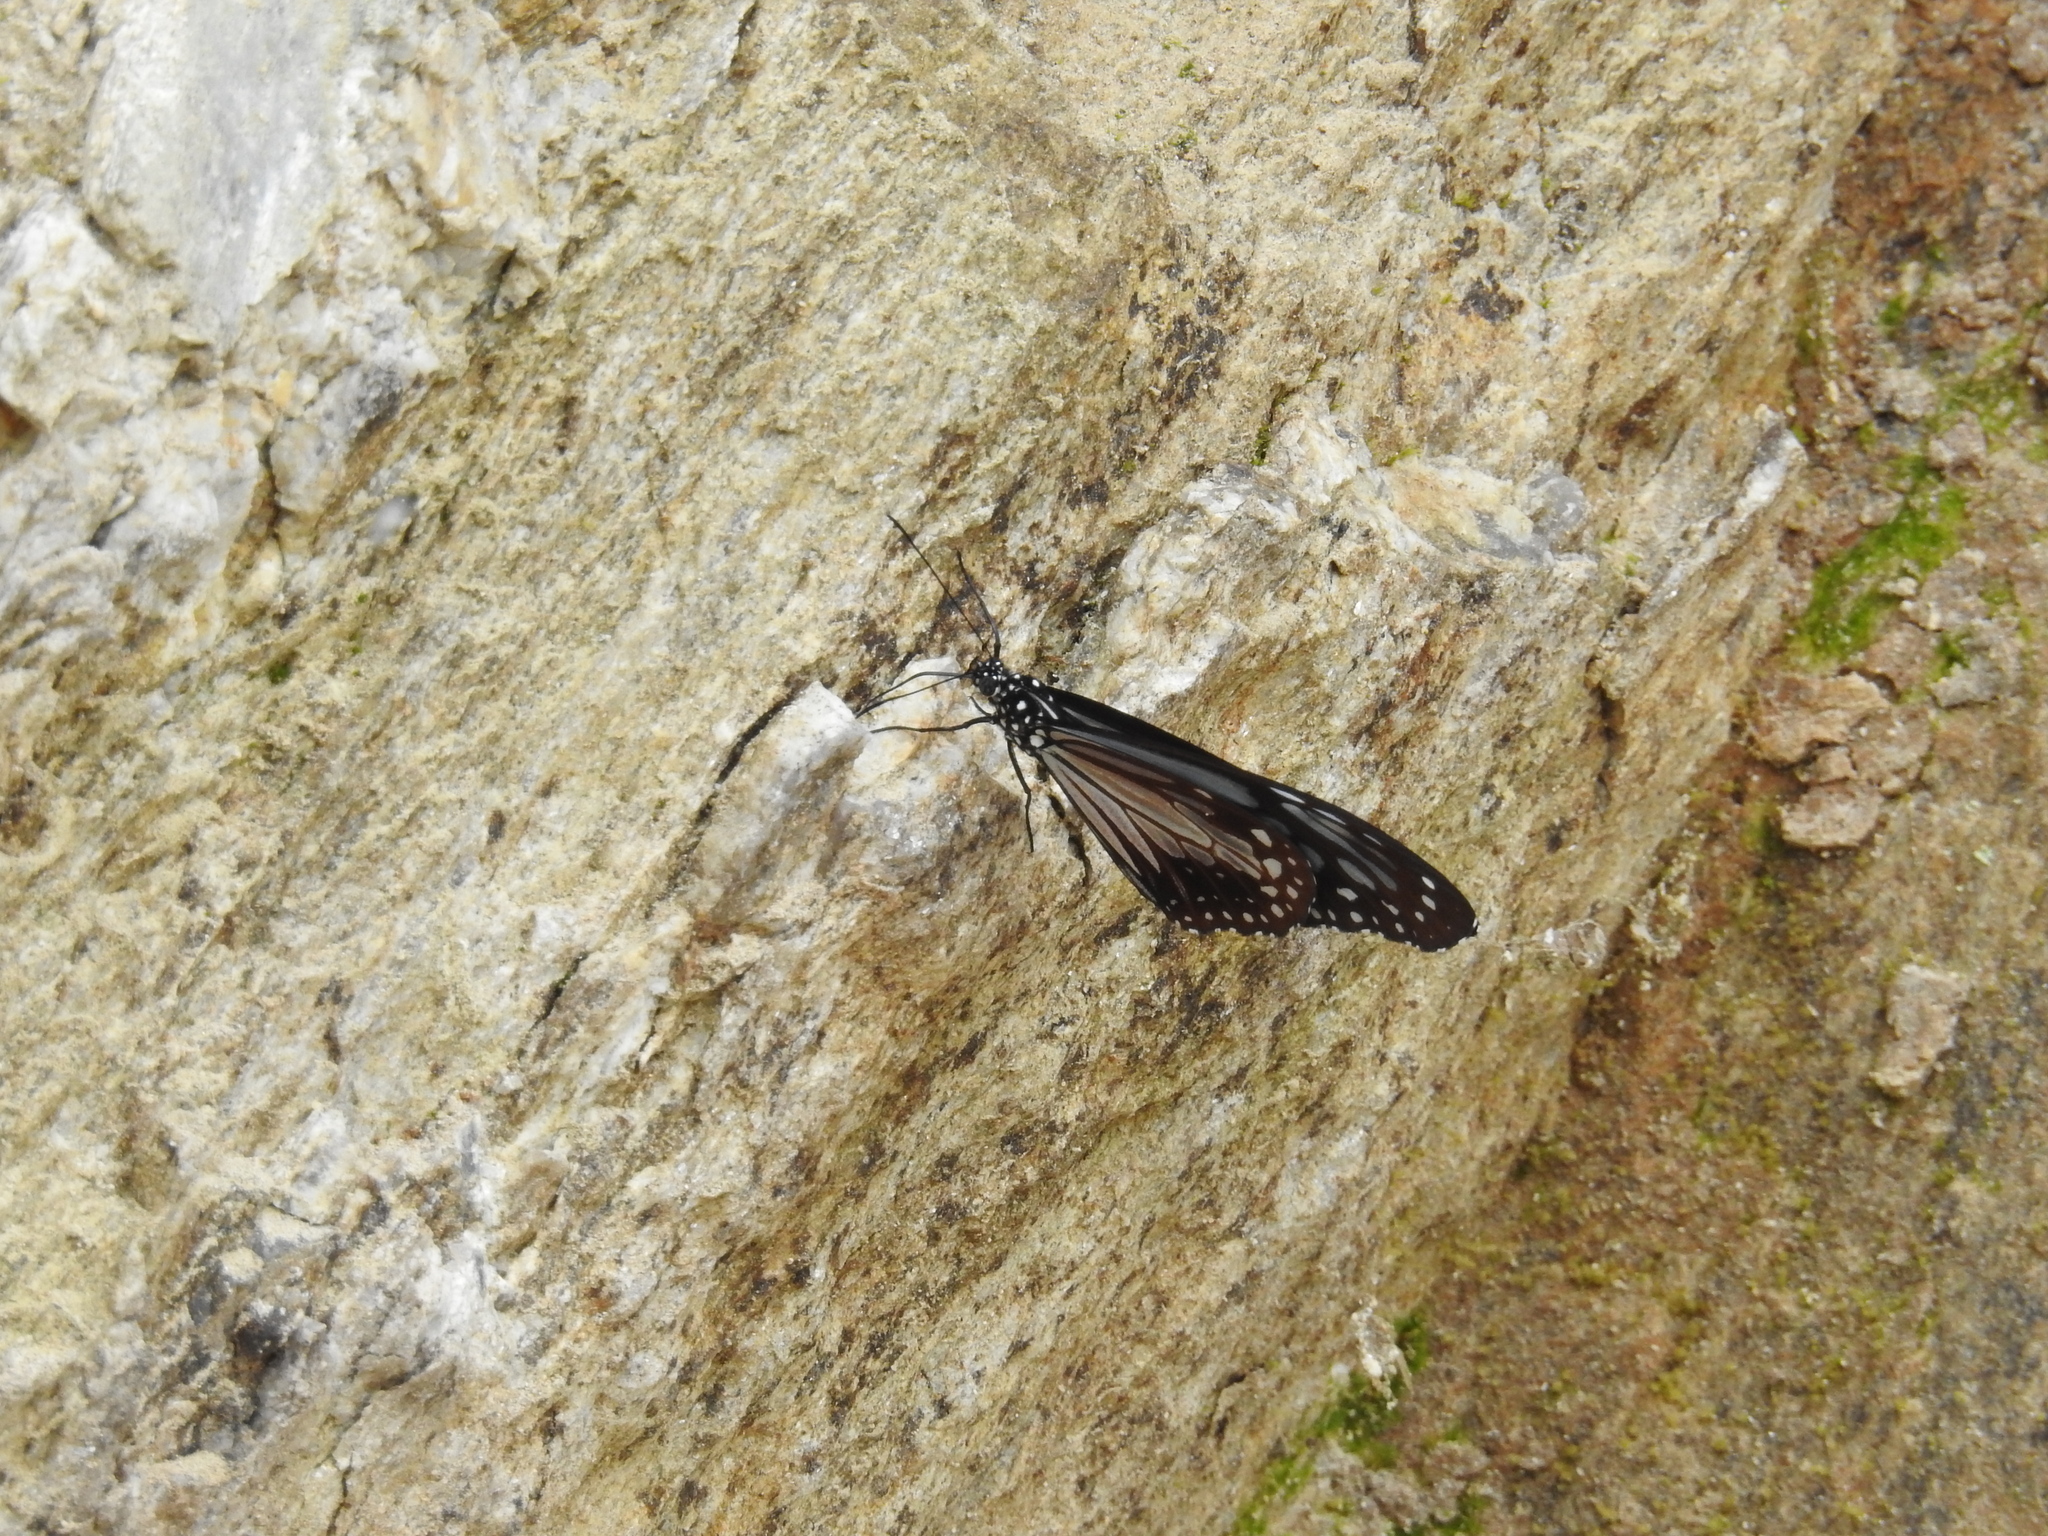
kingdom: Animalia
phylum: Arthropoda
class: Insecta
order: Lepidoptera
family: Nymphalidae
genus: Parantica
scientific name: Parantica melaneus
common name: Chocolate tiger
